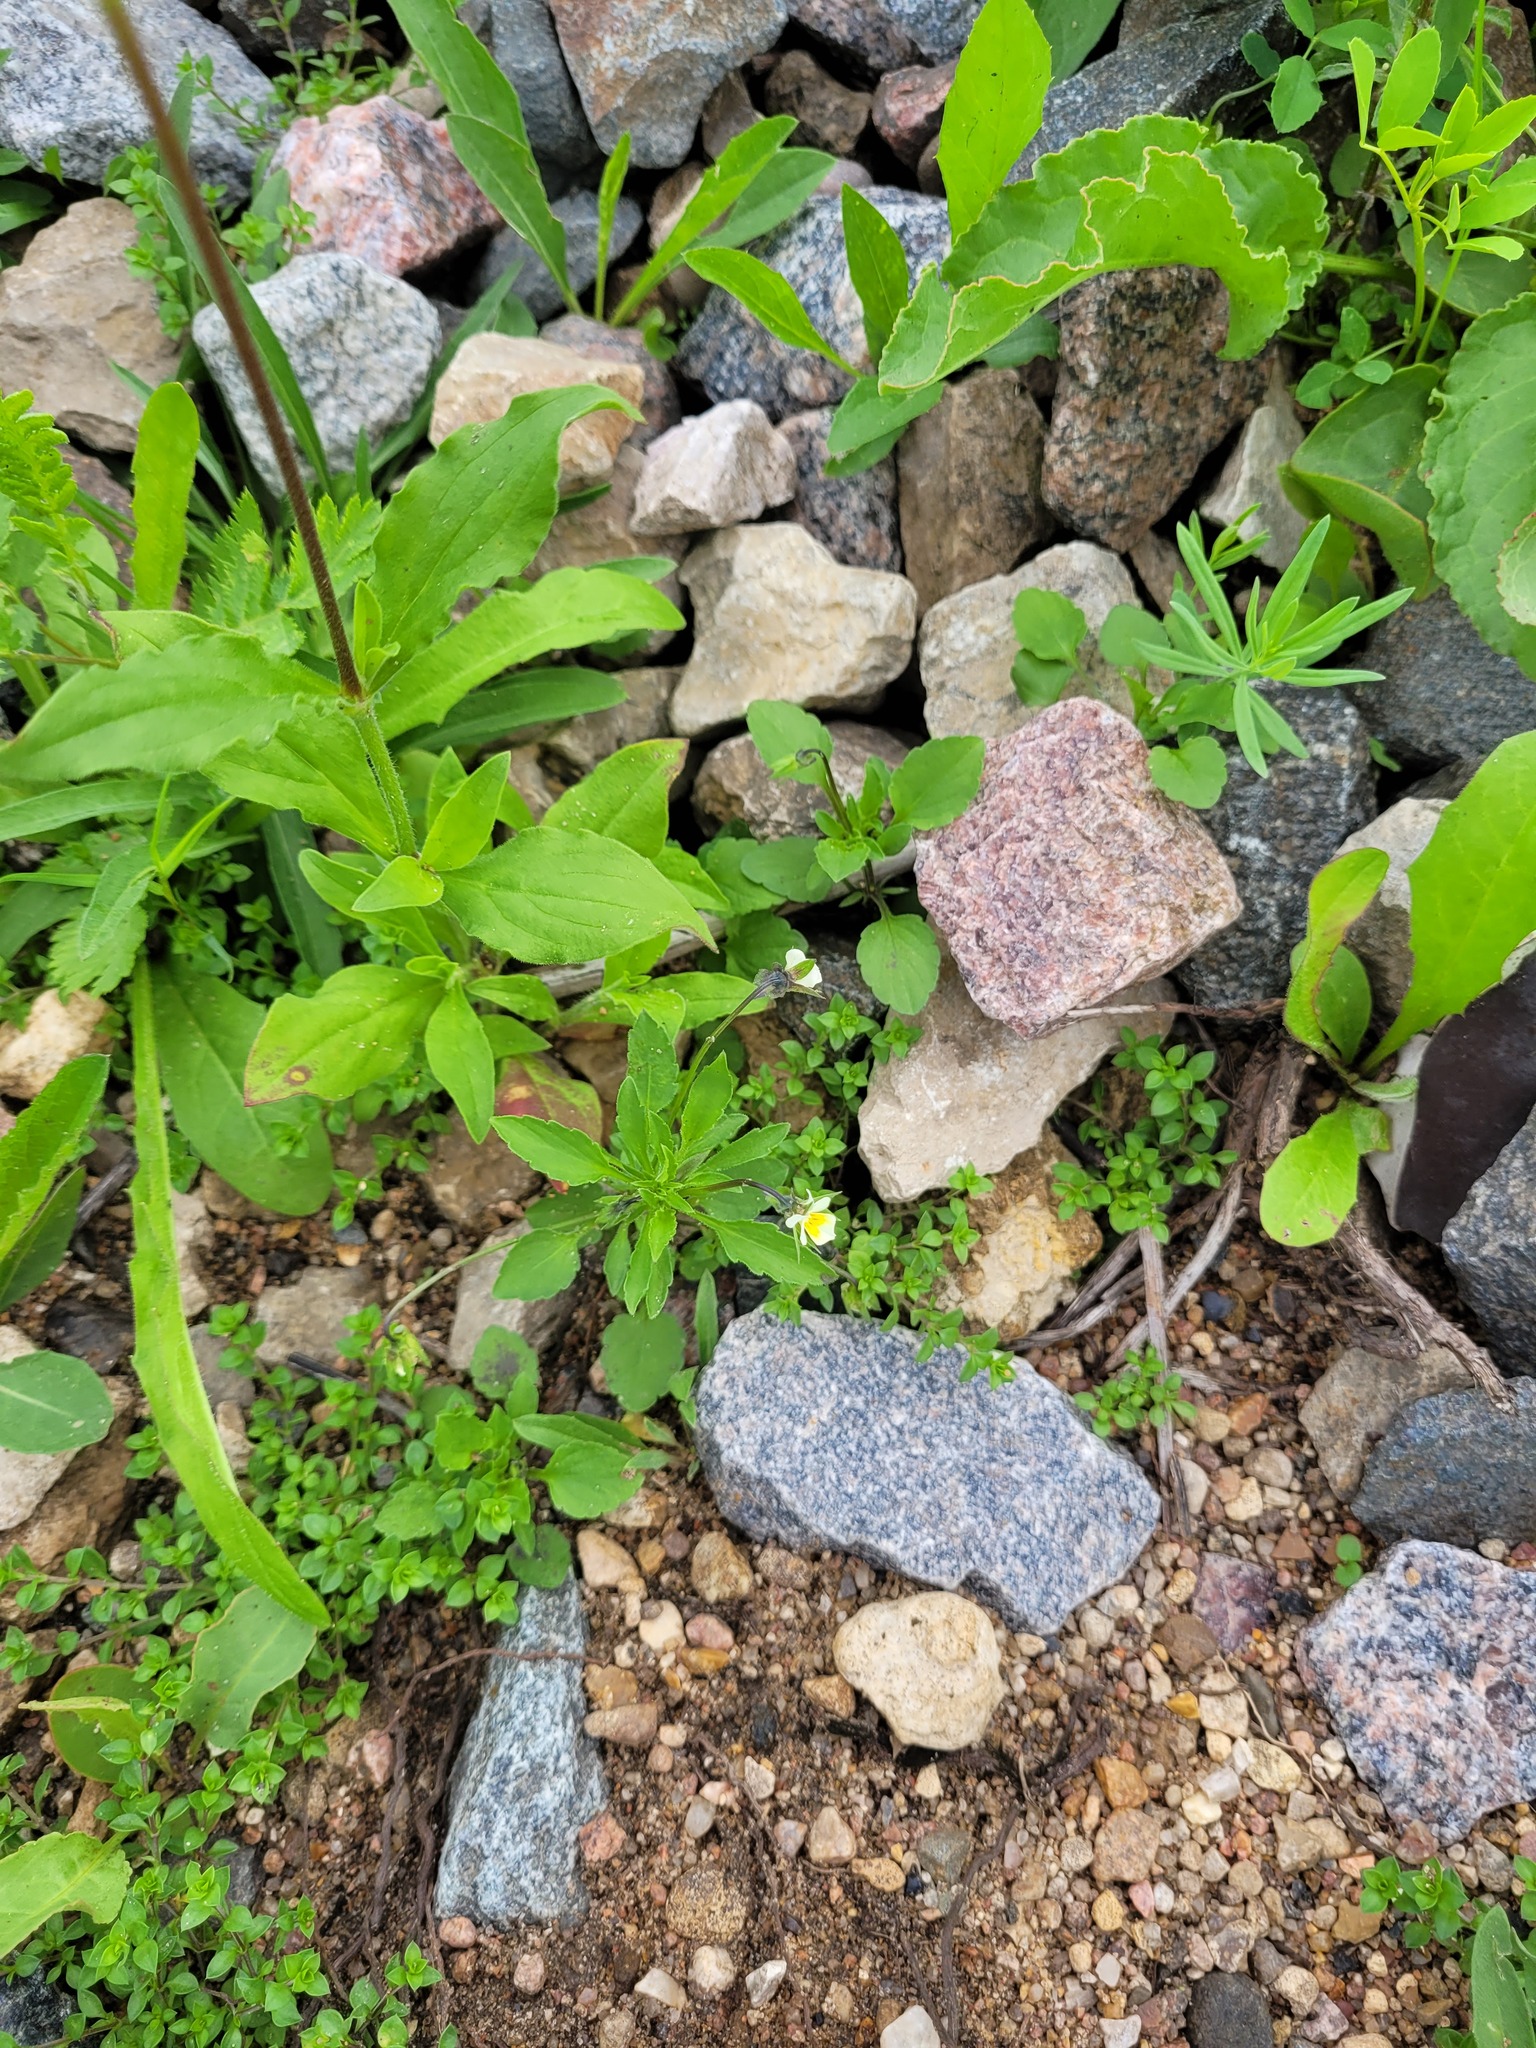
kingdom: Plantae
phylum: Tracheophyta
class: Magnoliopsida
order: Malpighiales
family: Violaceae
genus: Viola
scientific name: Viola arvensis
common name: Field pansy
